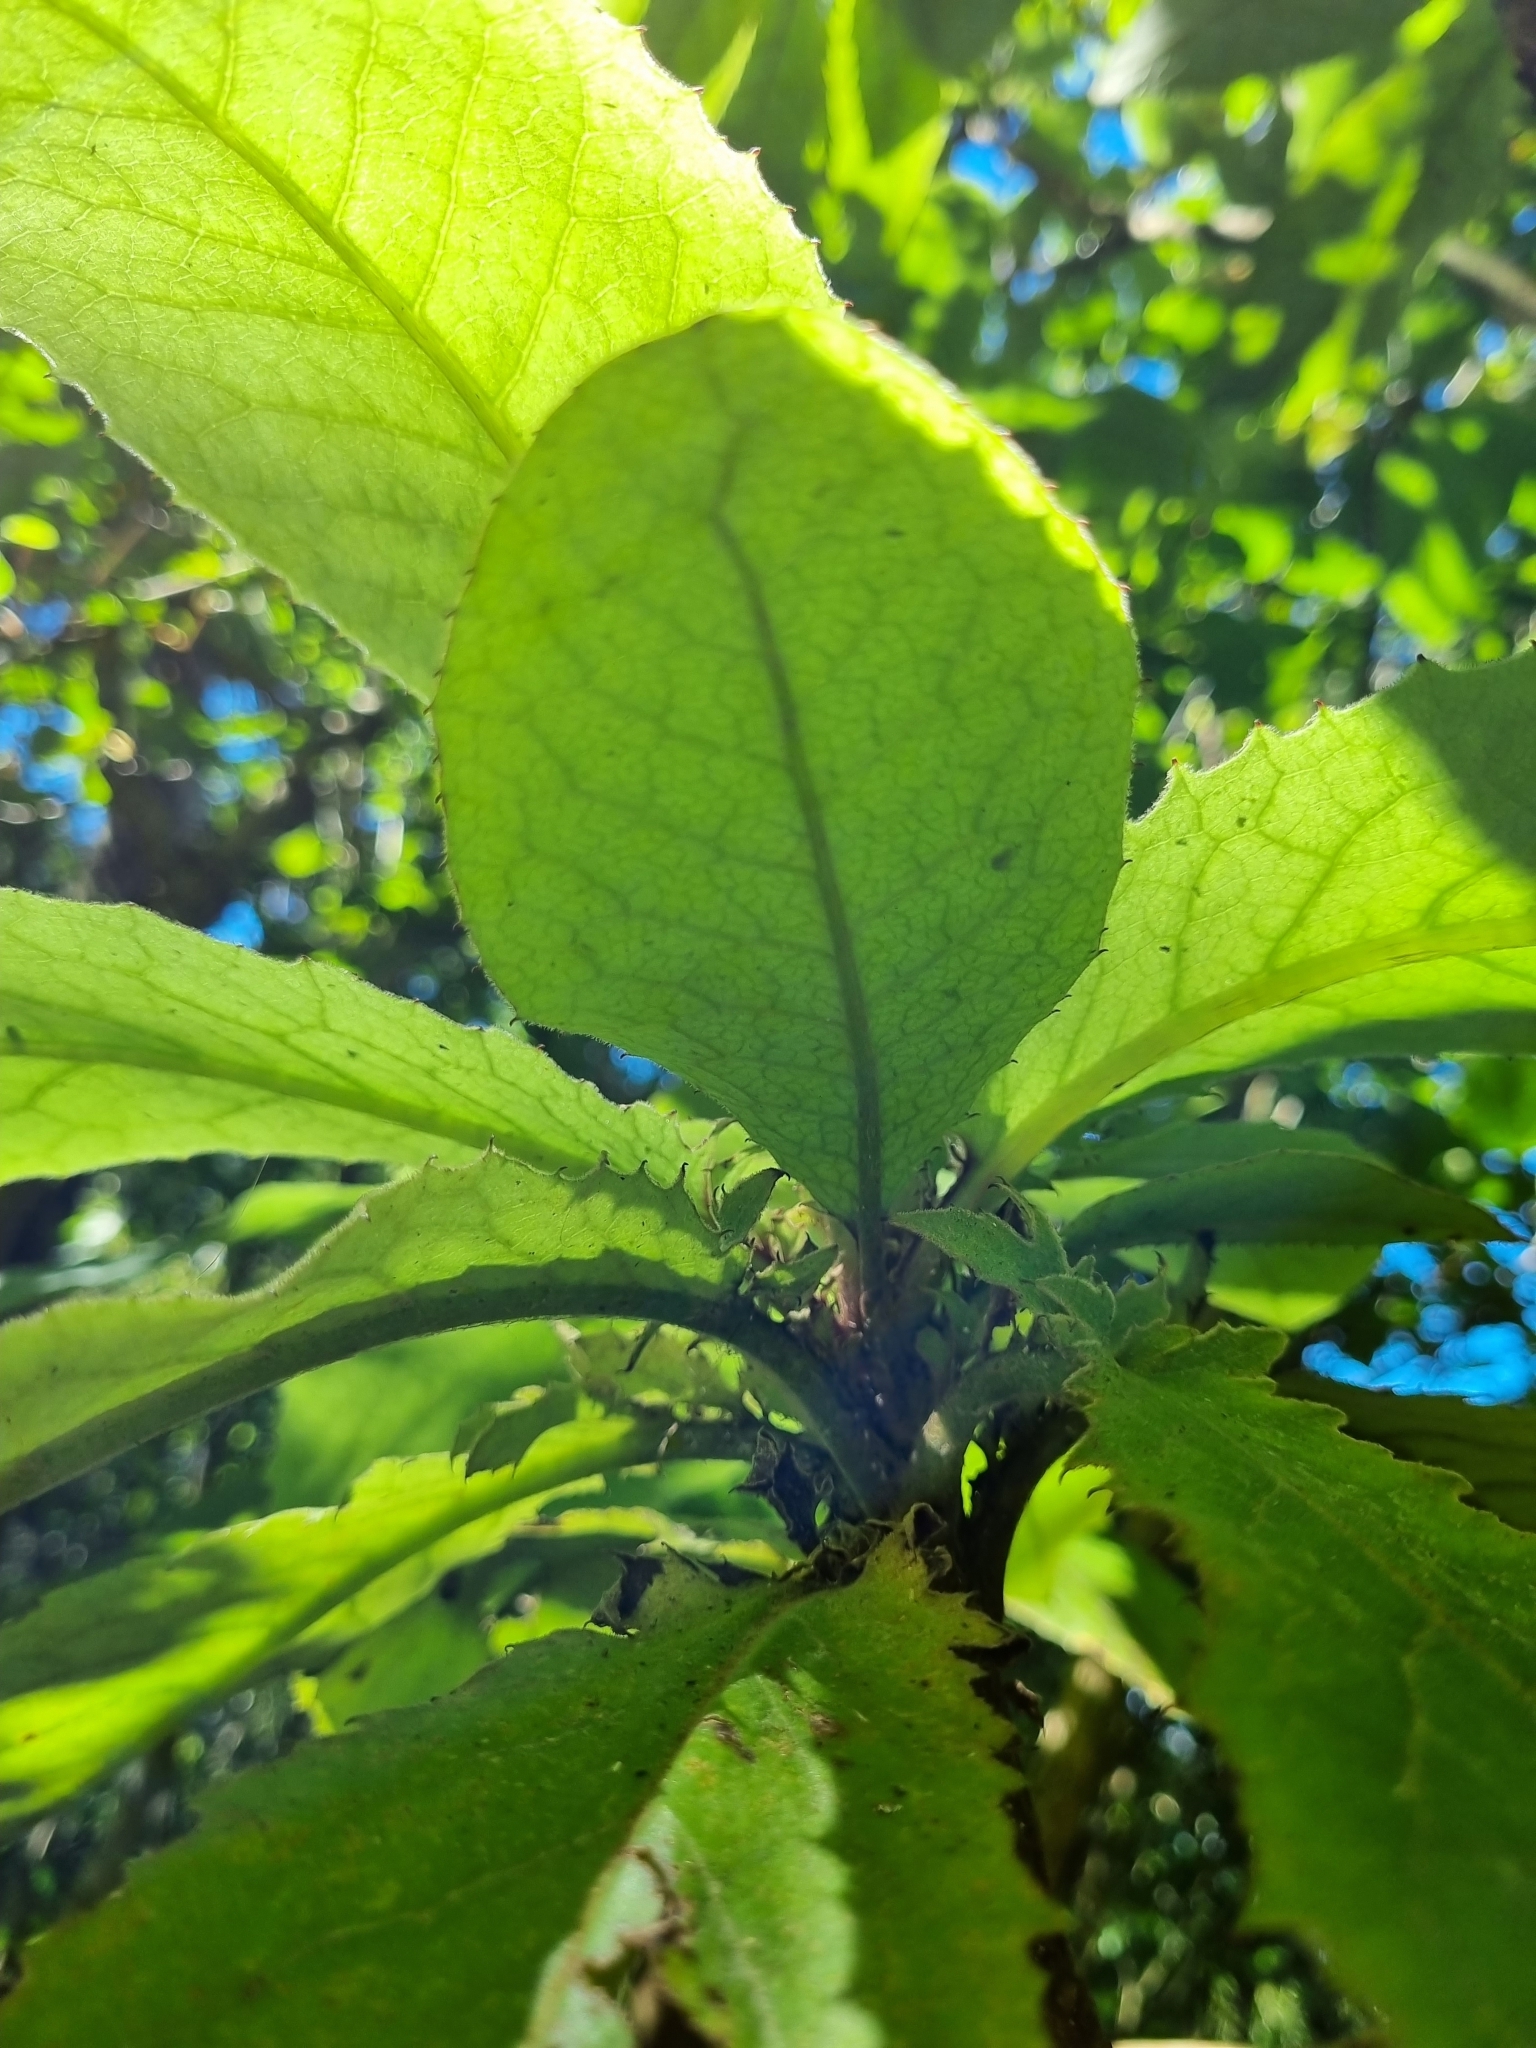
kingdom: Plantae
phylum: Tracheophyta
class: Magnoliopsida
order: Asterales
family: Asteraceae
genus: Brachyglottis
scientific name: Brachyglottis hectorii
